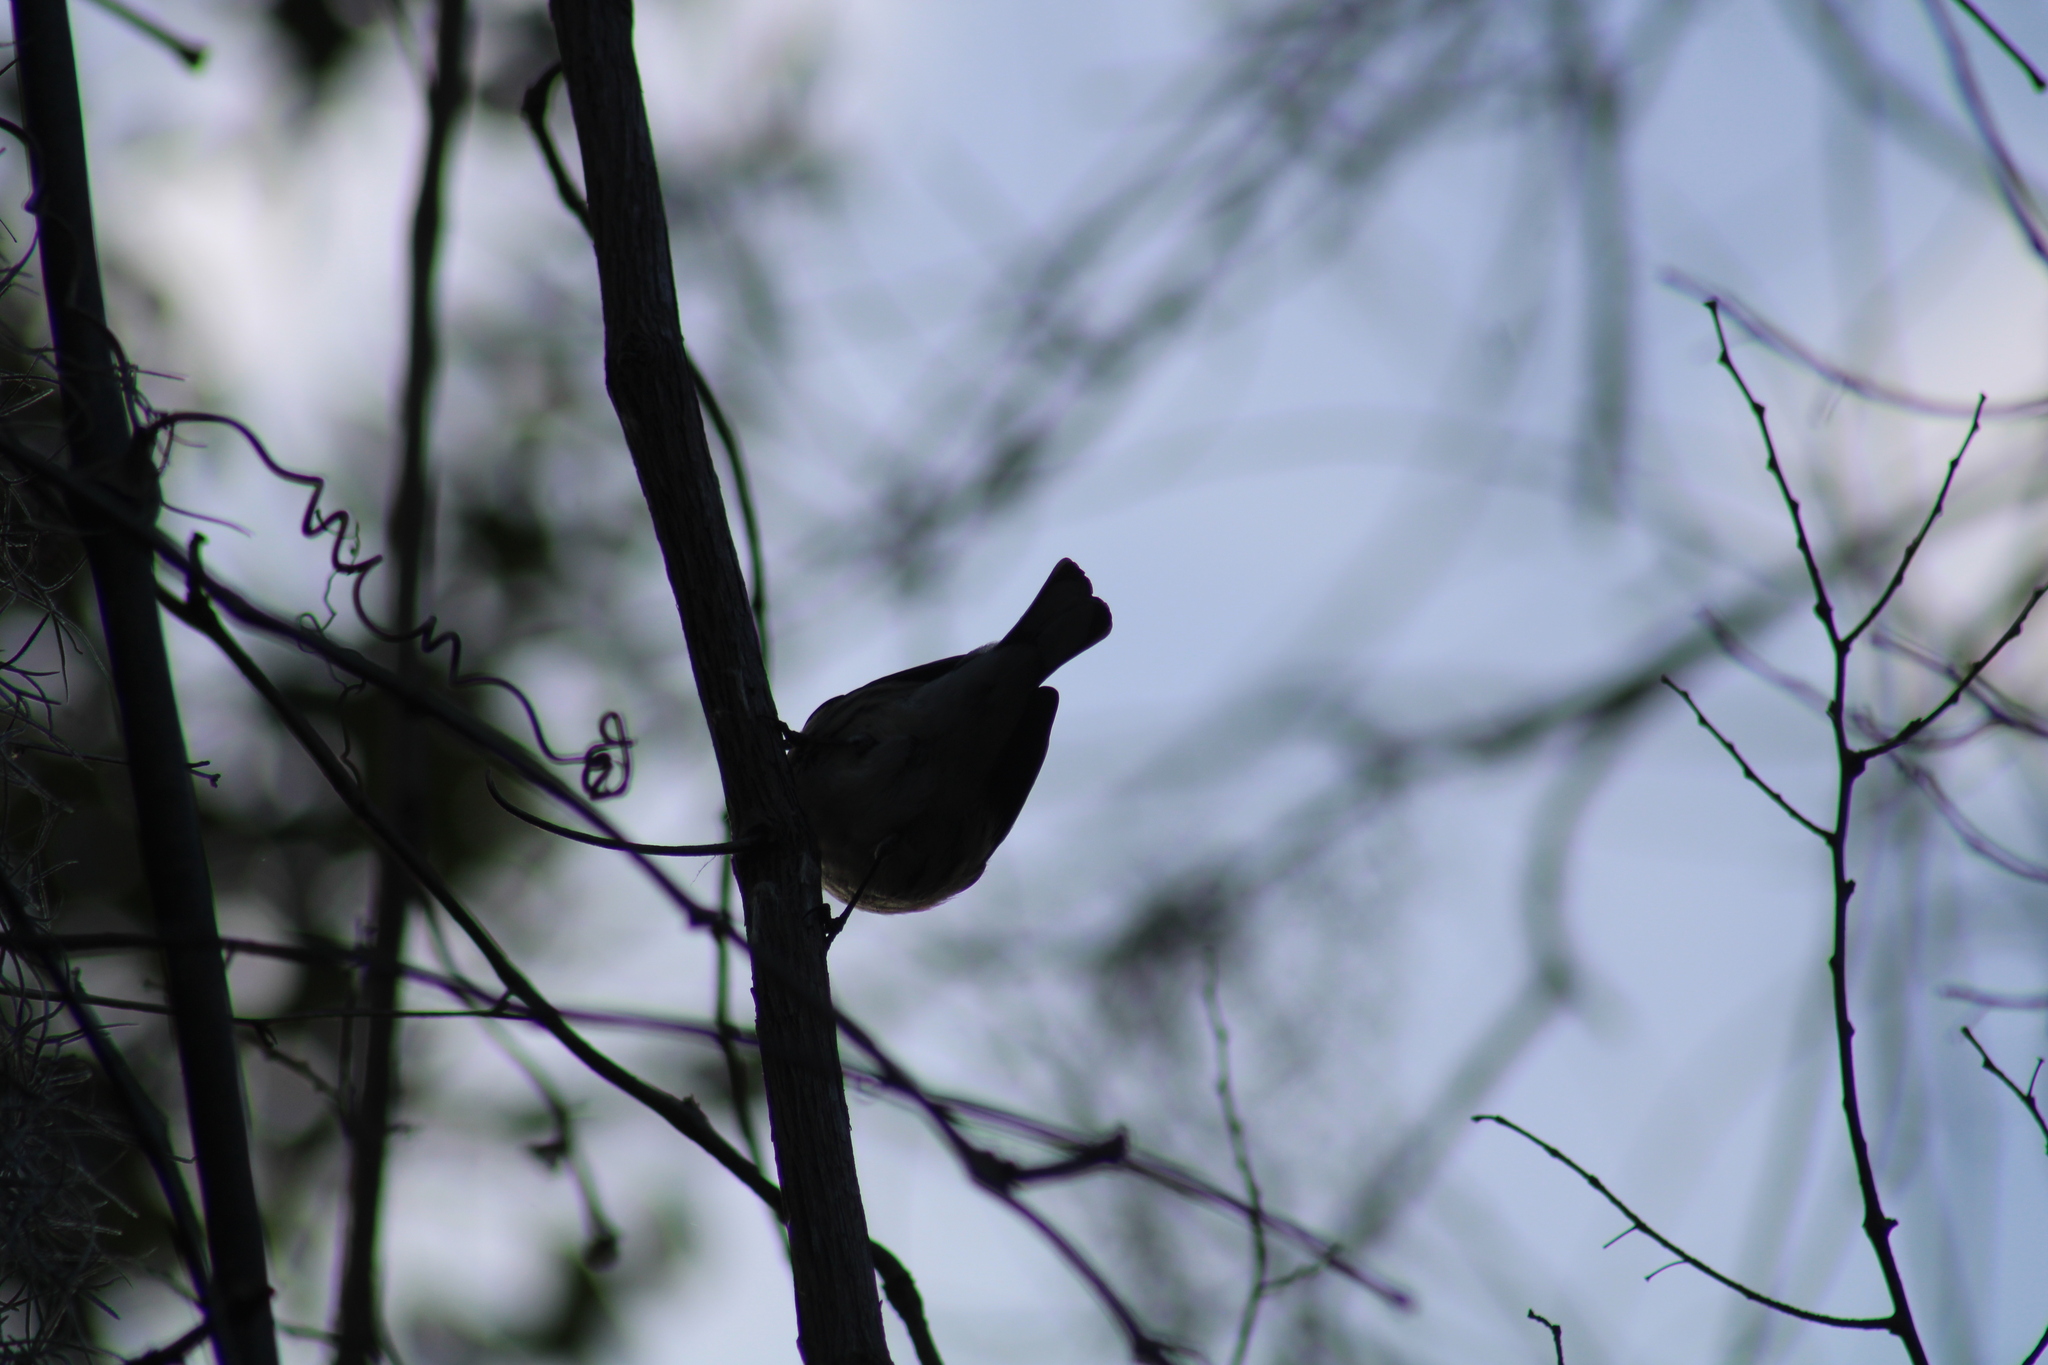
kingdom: Animalia
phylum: Chordata
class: Aves
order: Passeriformes
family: Parulidae
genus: Setophaga
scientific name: Setophaga coronata
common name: Myrtle warbler
